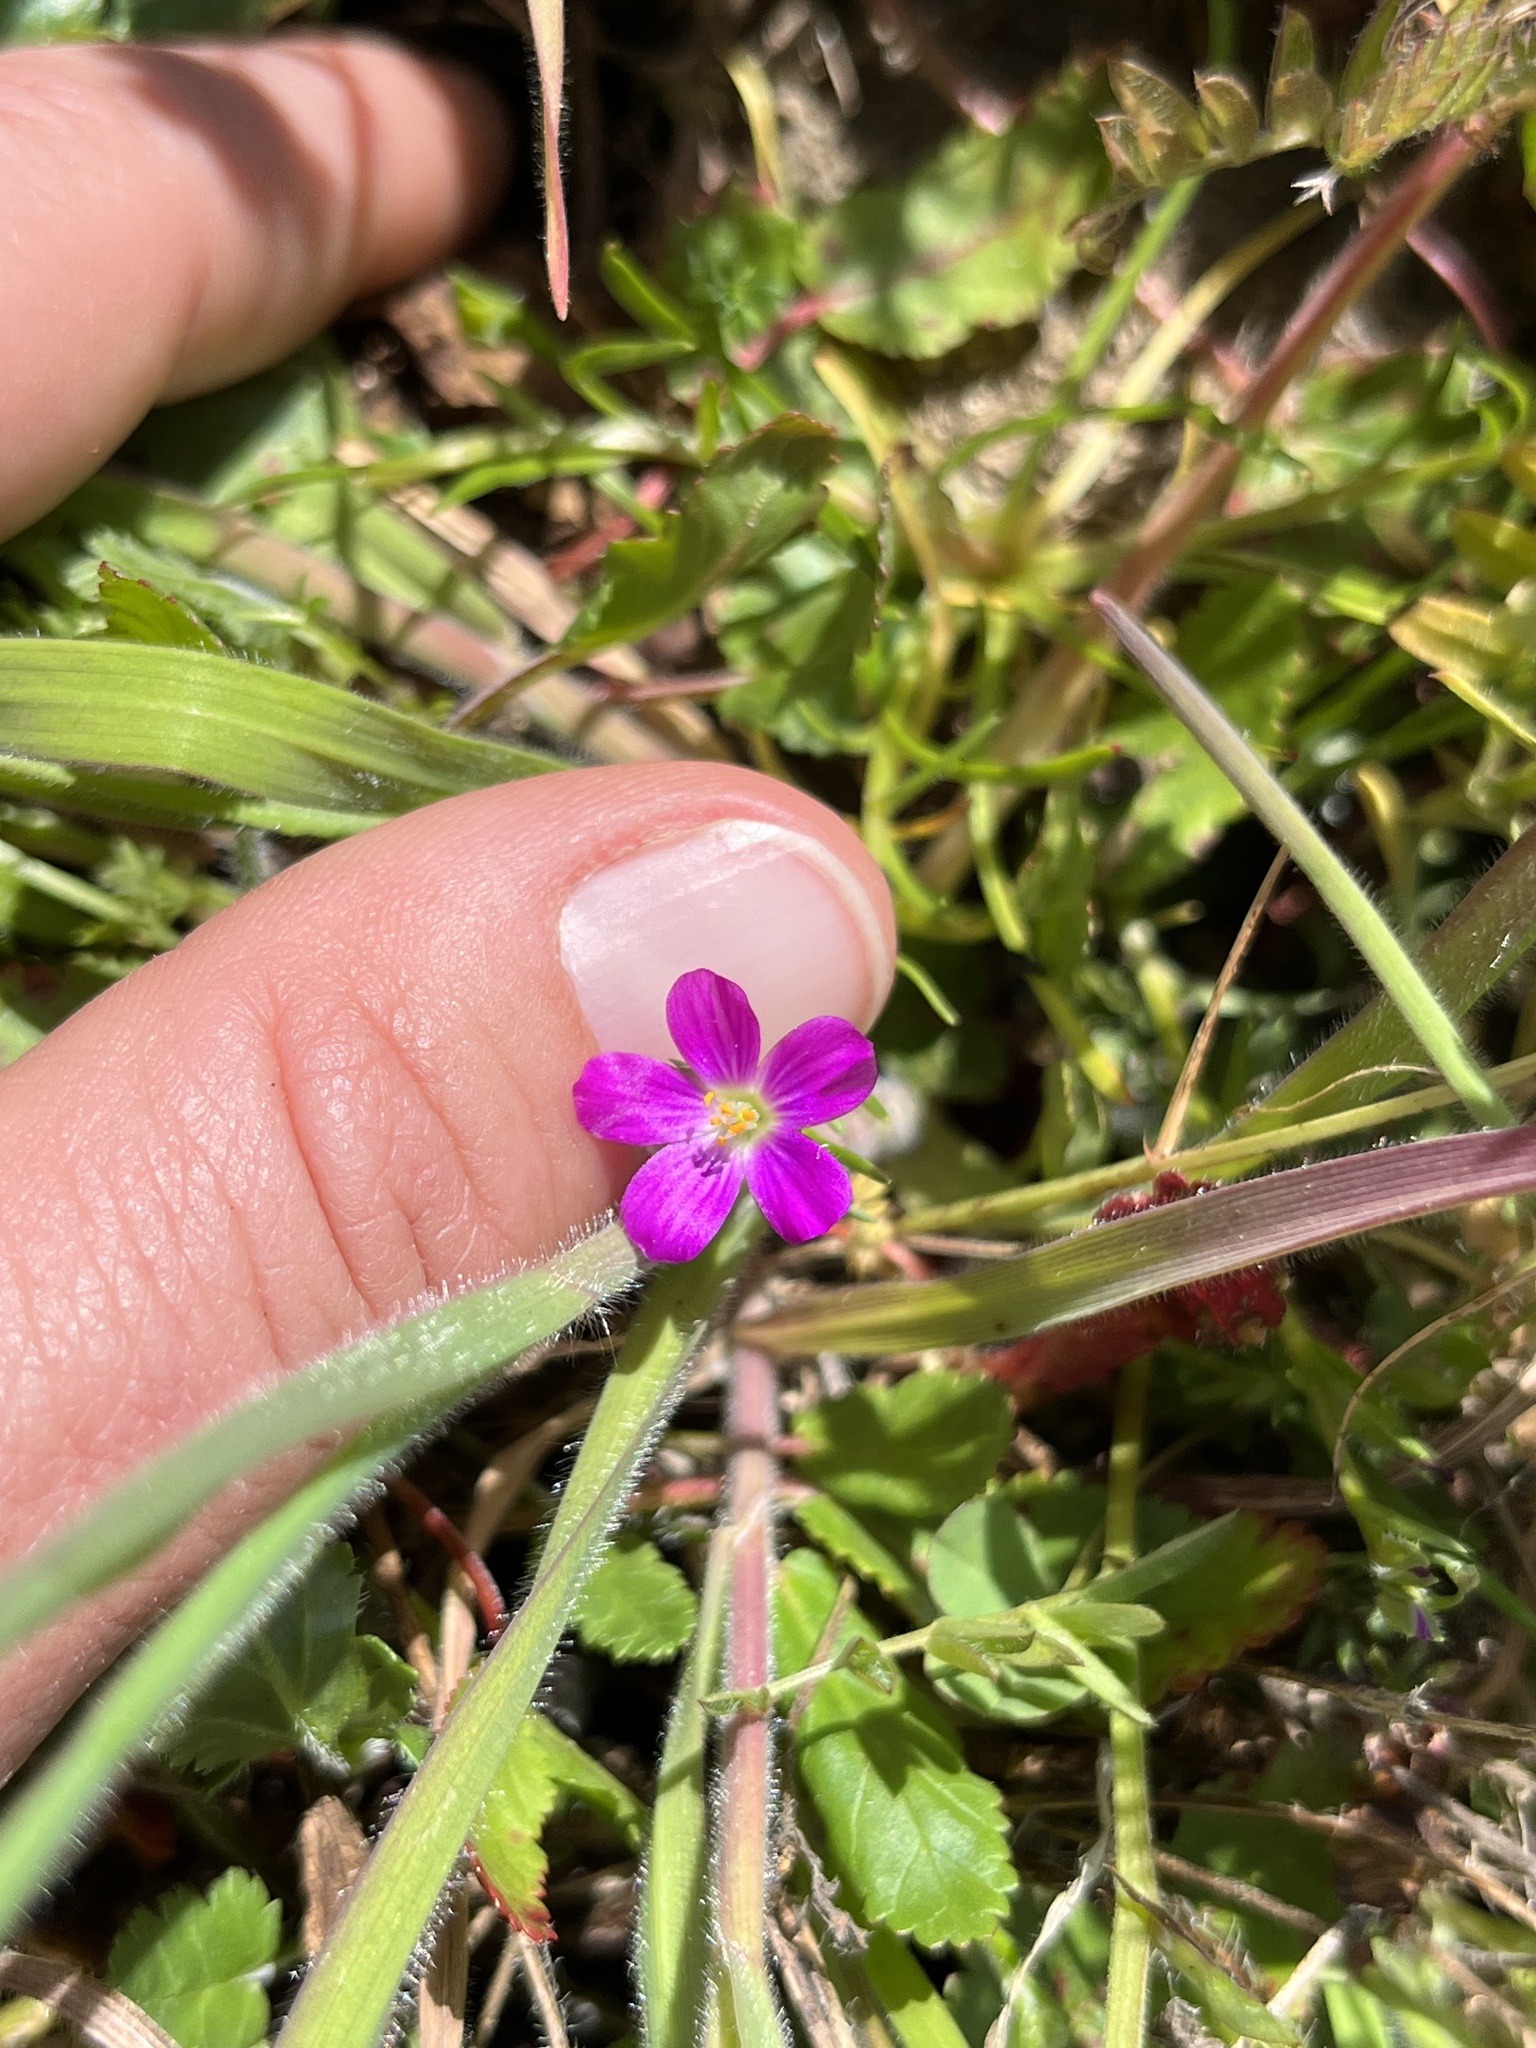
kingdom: Plantae
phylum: Tracheophyta
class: Magnoliopsida
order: Caryophyllales
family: Montiaceae
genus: Calandrinia
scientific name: Calandrinia menziesii
